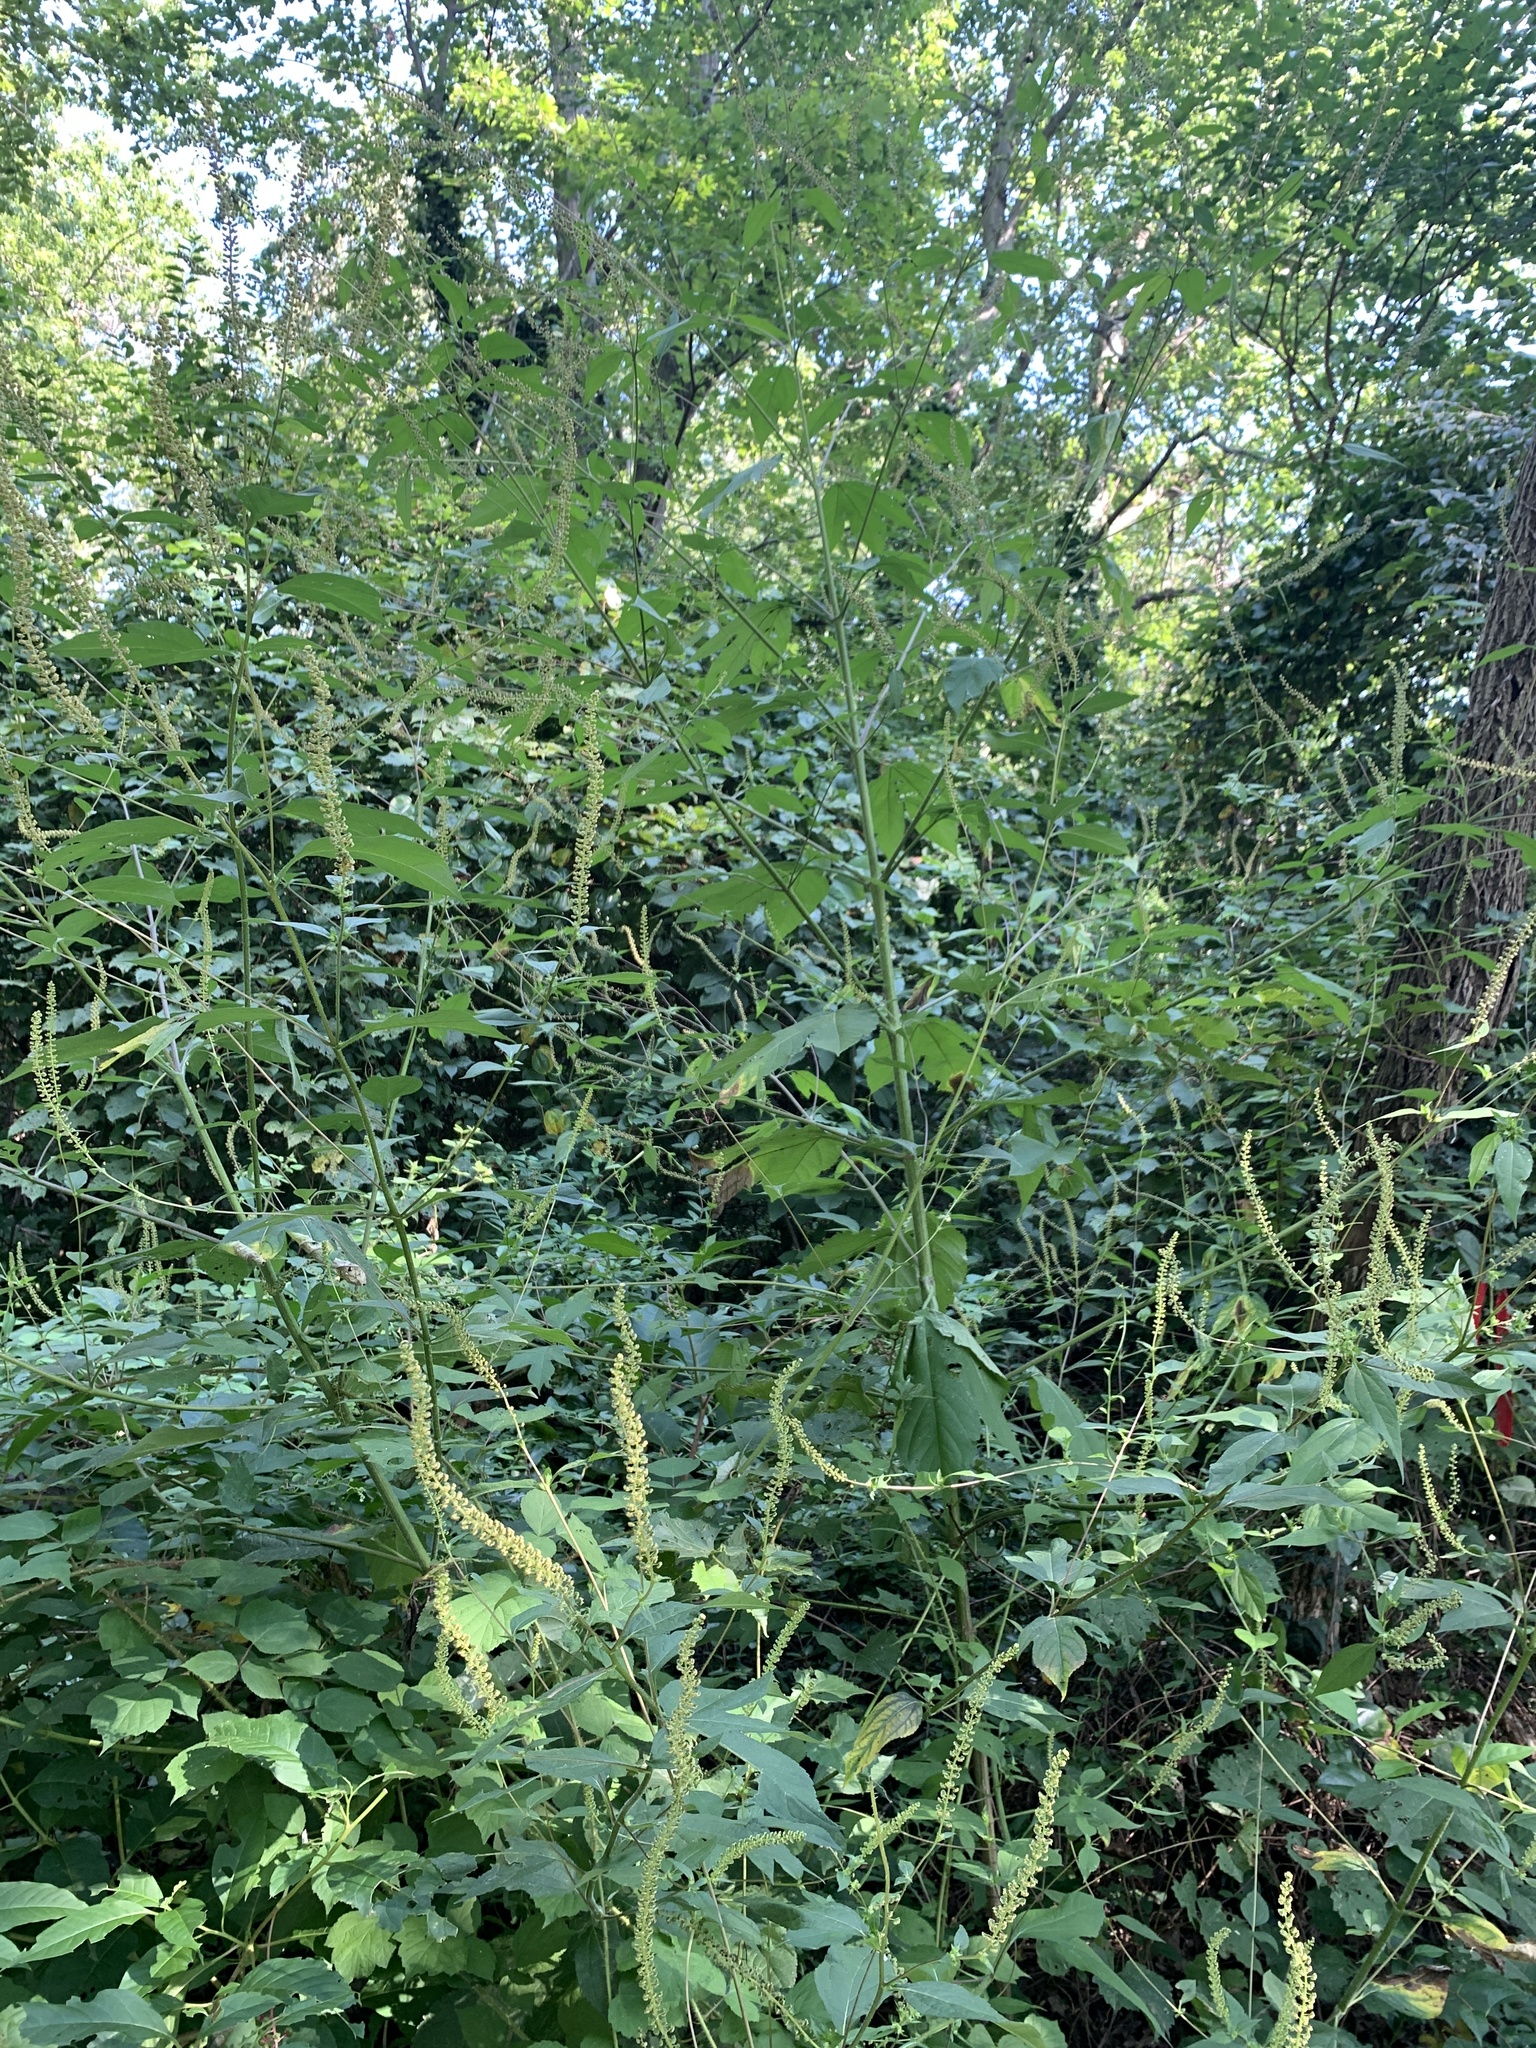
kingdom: Plantae
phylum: Tracheophyta
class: Magnoliopsida
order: Asterales
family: Asteraceae
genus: Ambrosia
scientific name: Ambrosia trifida
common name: Giant ragweed
